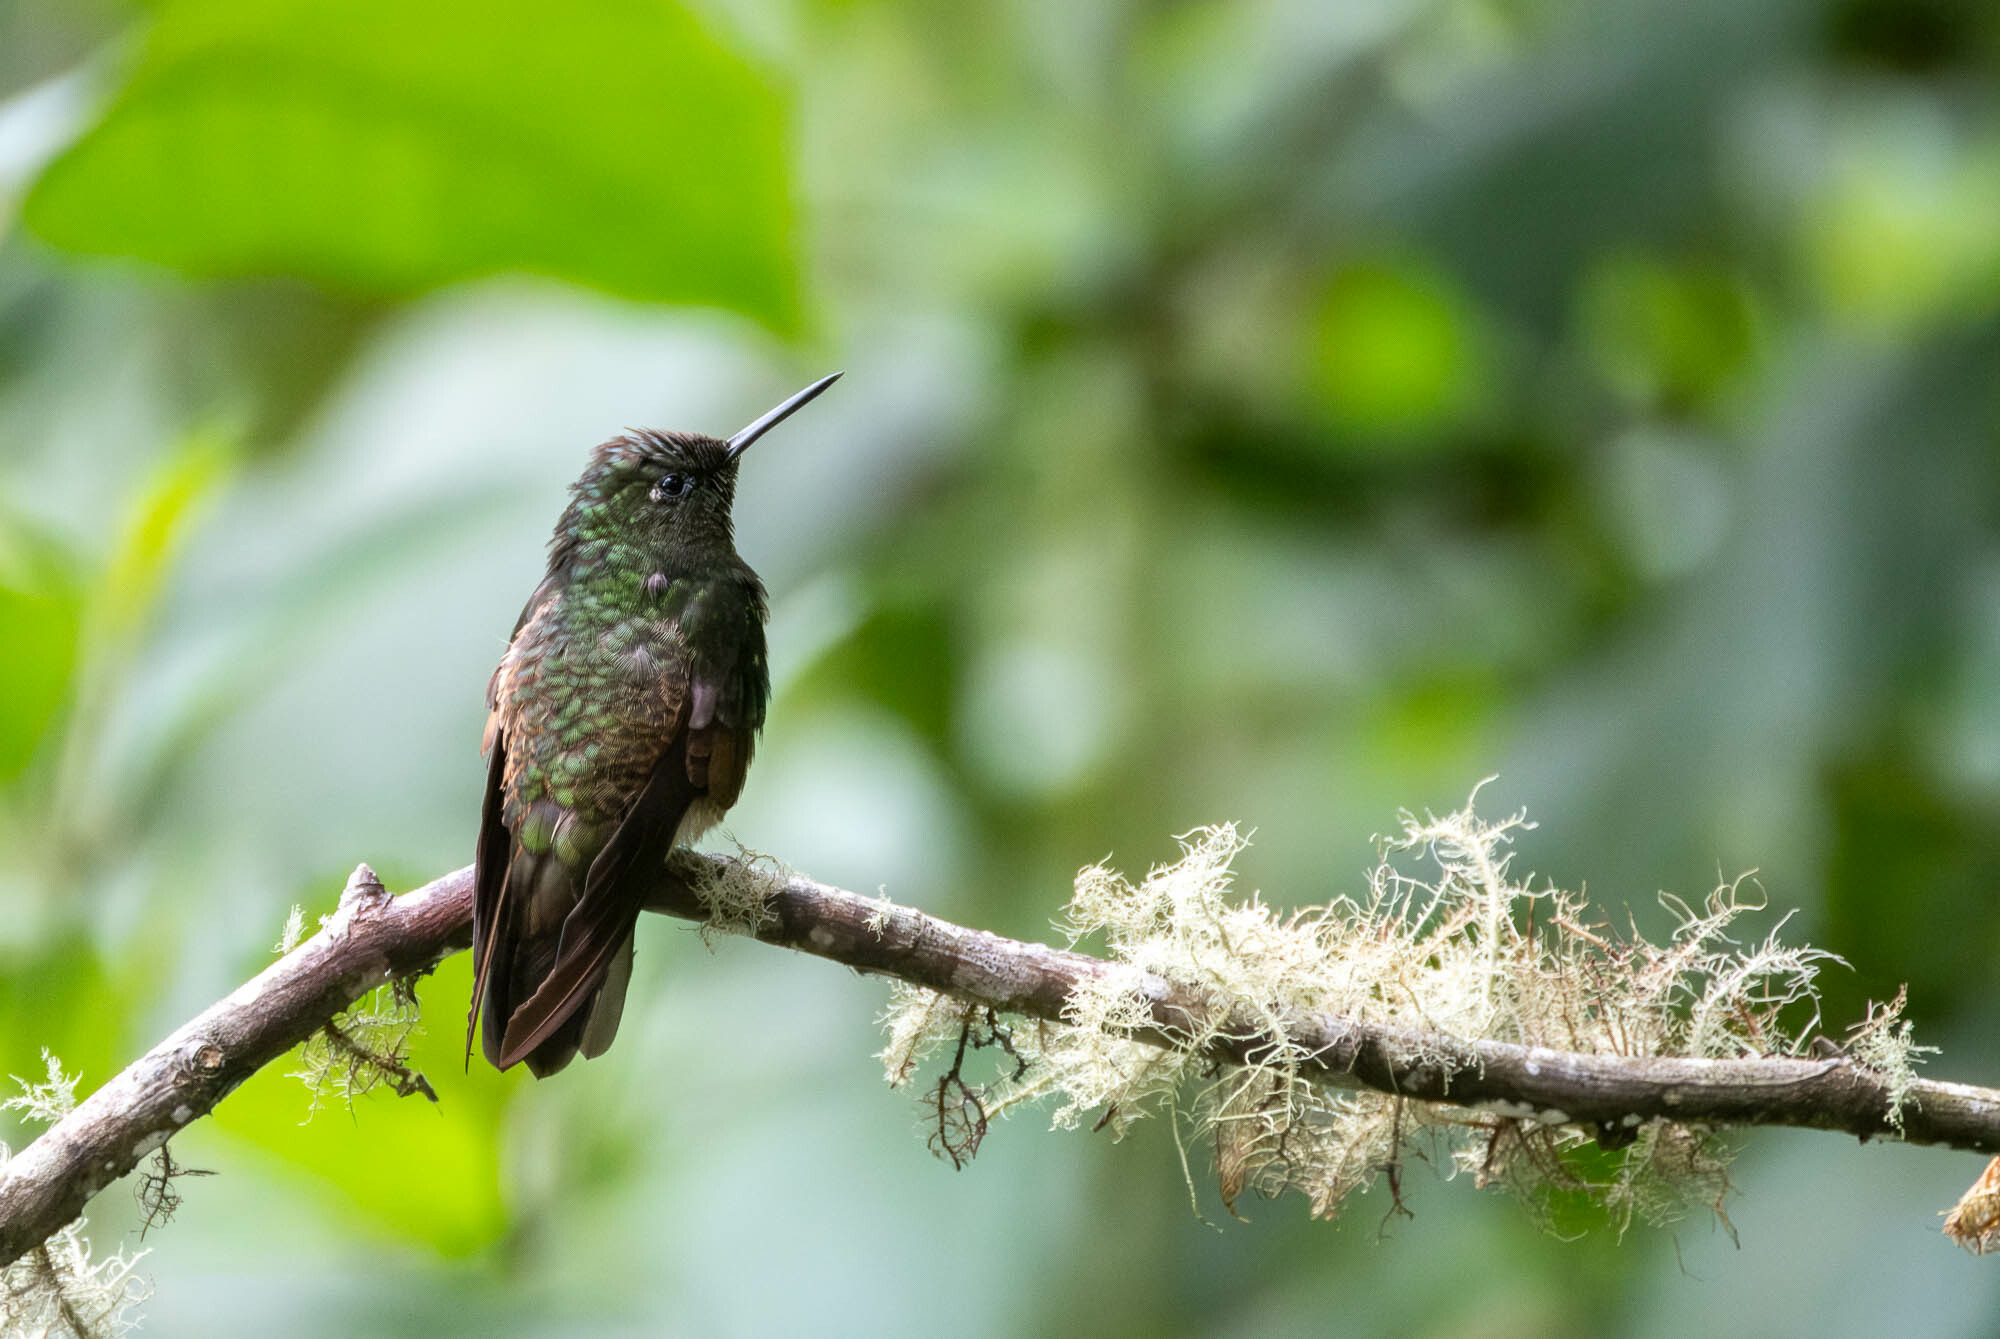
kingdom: Animalia
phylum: Chordata
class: Aves
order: Apodiformes
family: Trochilidae
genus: Boissonneaua
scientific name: Boissonneaua flavescens
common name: Buff-tailed coronet
